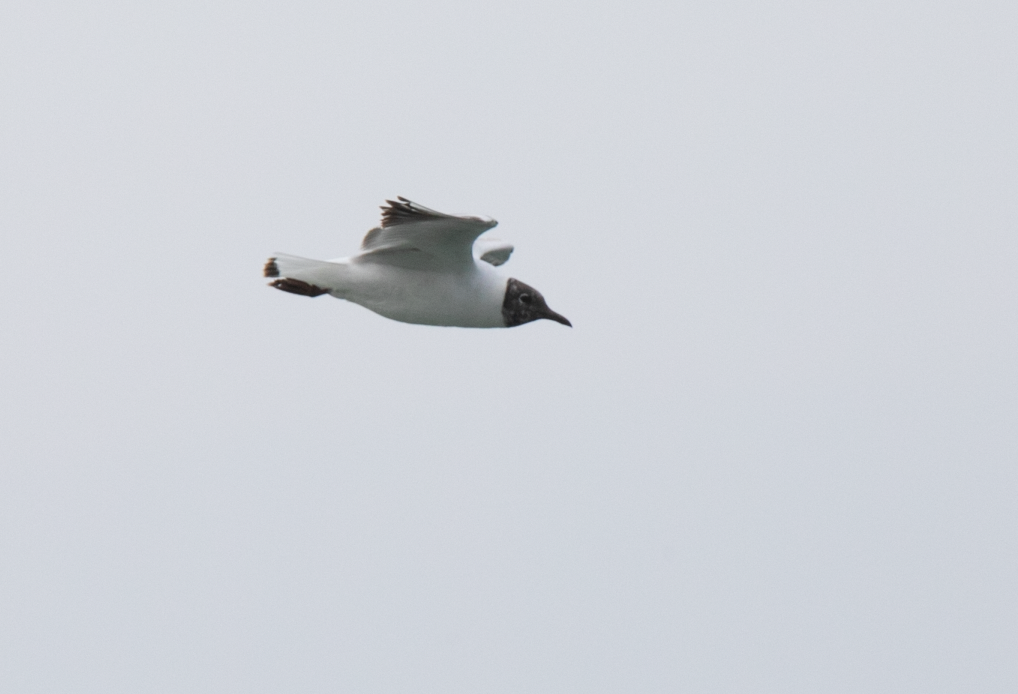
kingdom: Animalia
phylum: Chordata
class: Aves
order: Charadriiformes
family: Laridae
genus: Chroicocephalus
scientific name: Chroicocephalus ridibundus
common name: Black-headed gull
